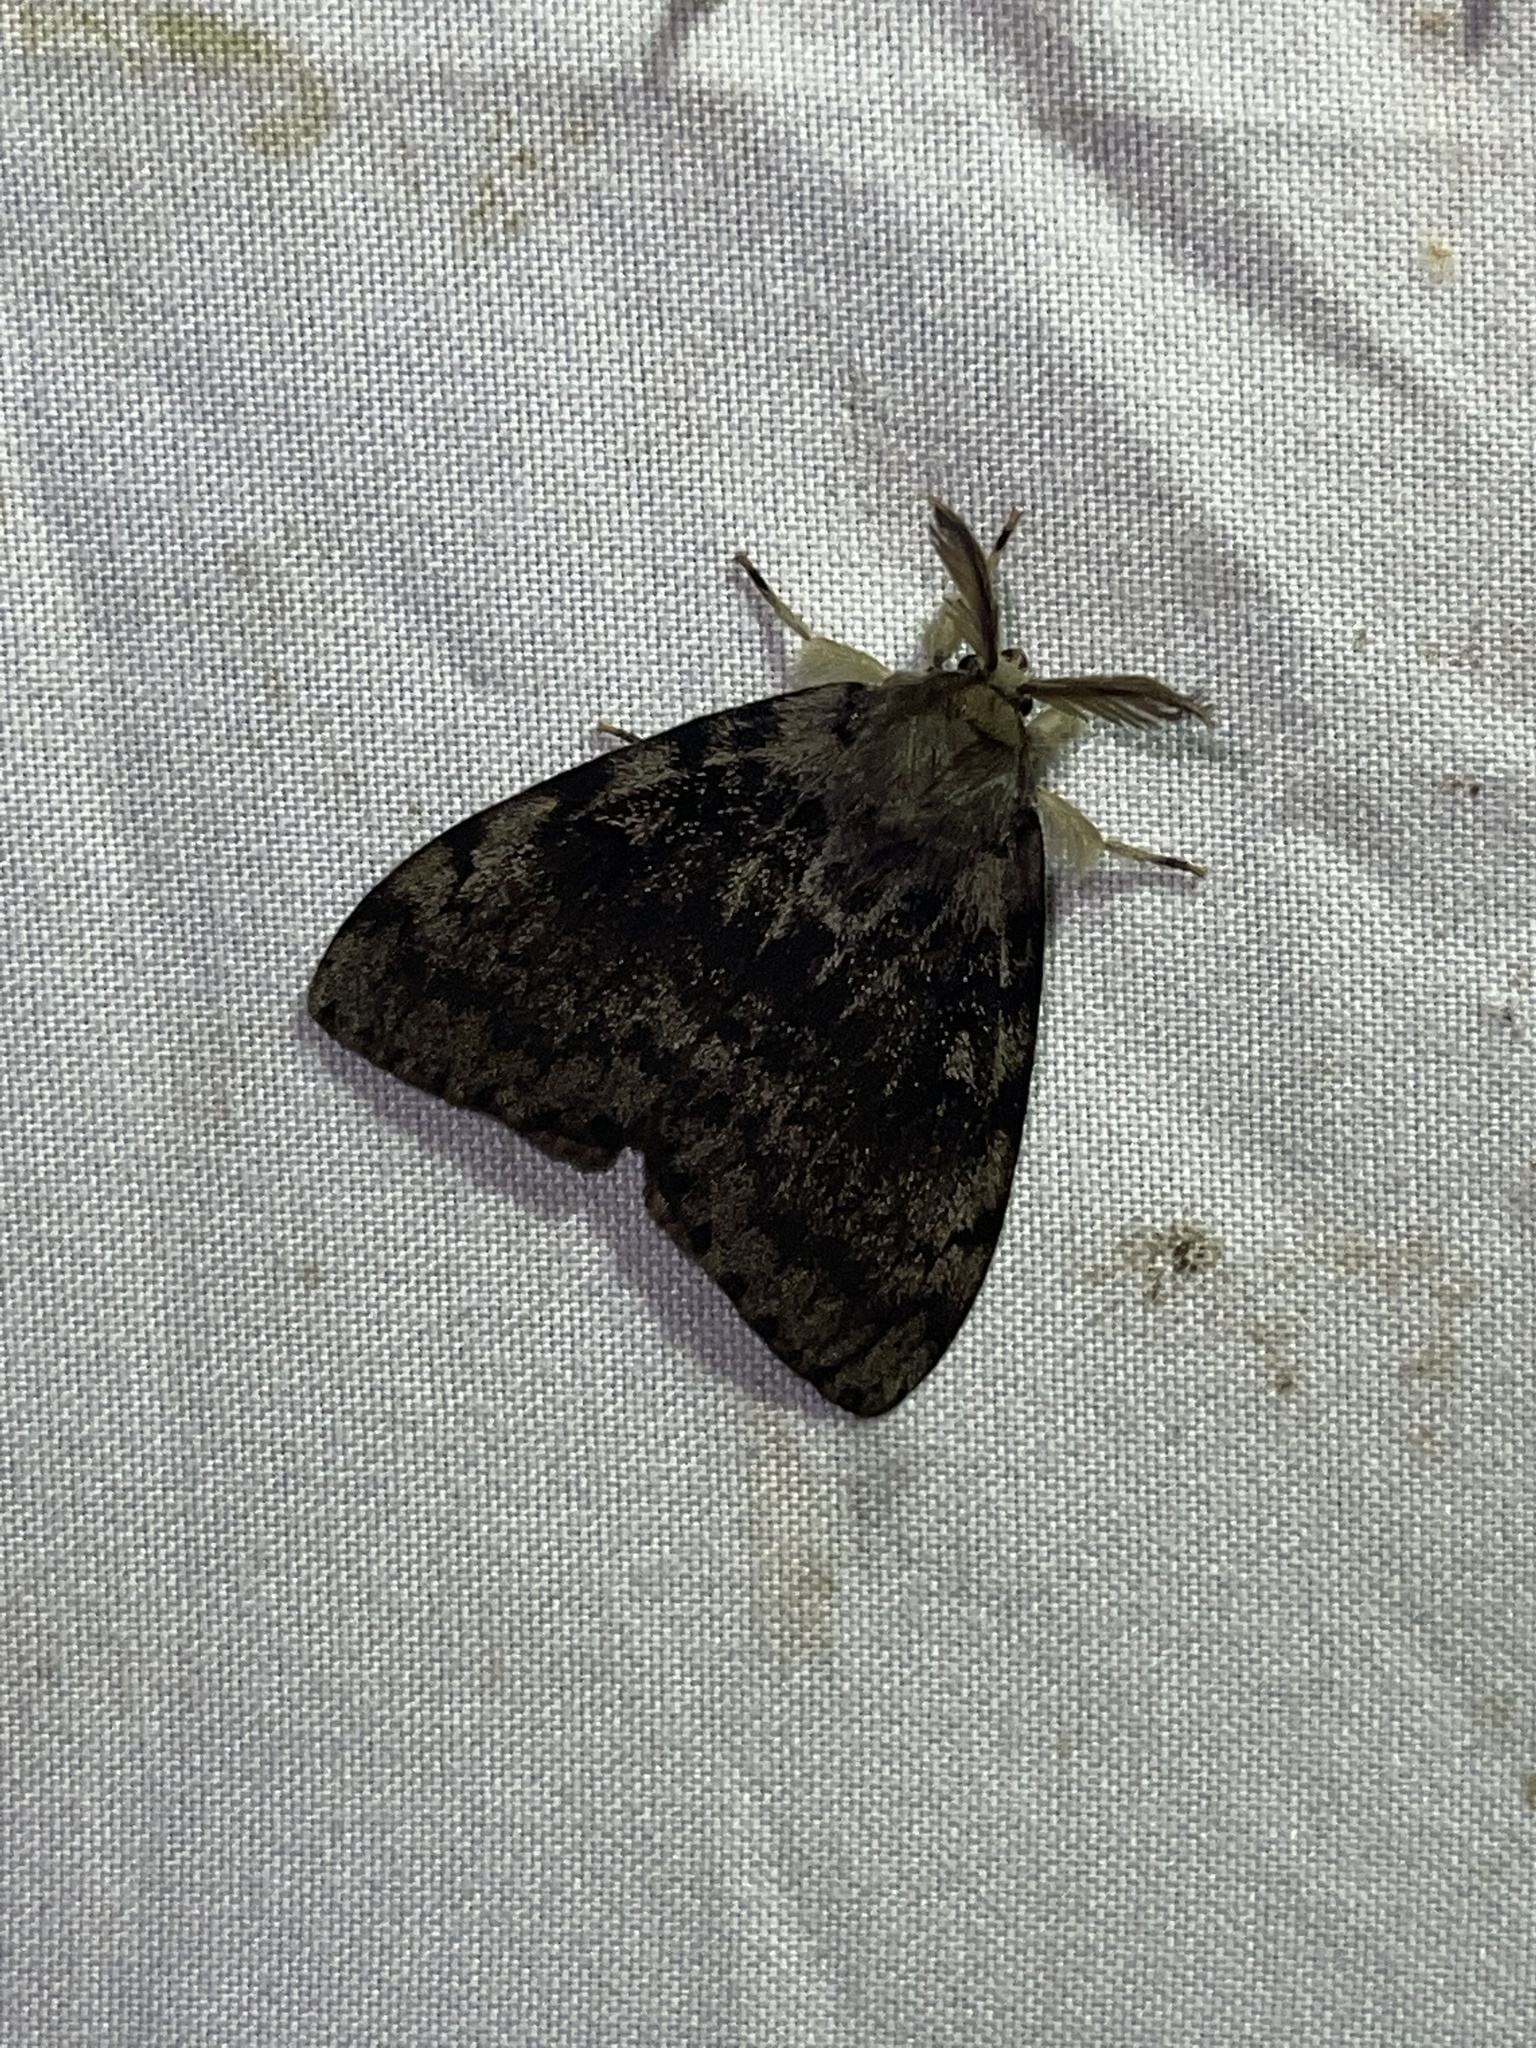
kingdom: Animalia
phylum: Arthropoda
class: Insecta
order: Lepidoptera
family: Erebidae
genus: Lymantria
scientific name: Lymantria dispar
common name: Gypsy moth
